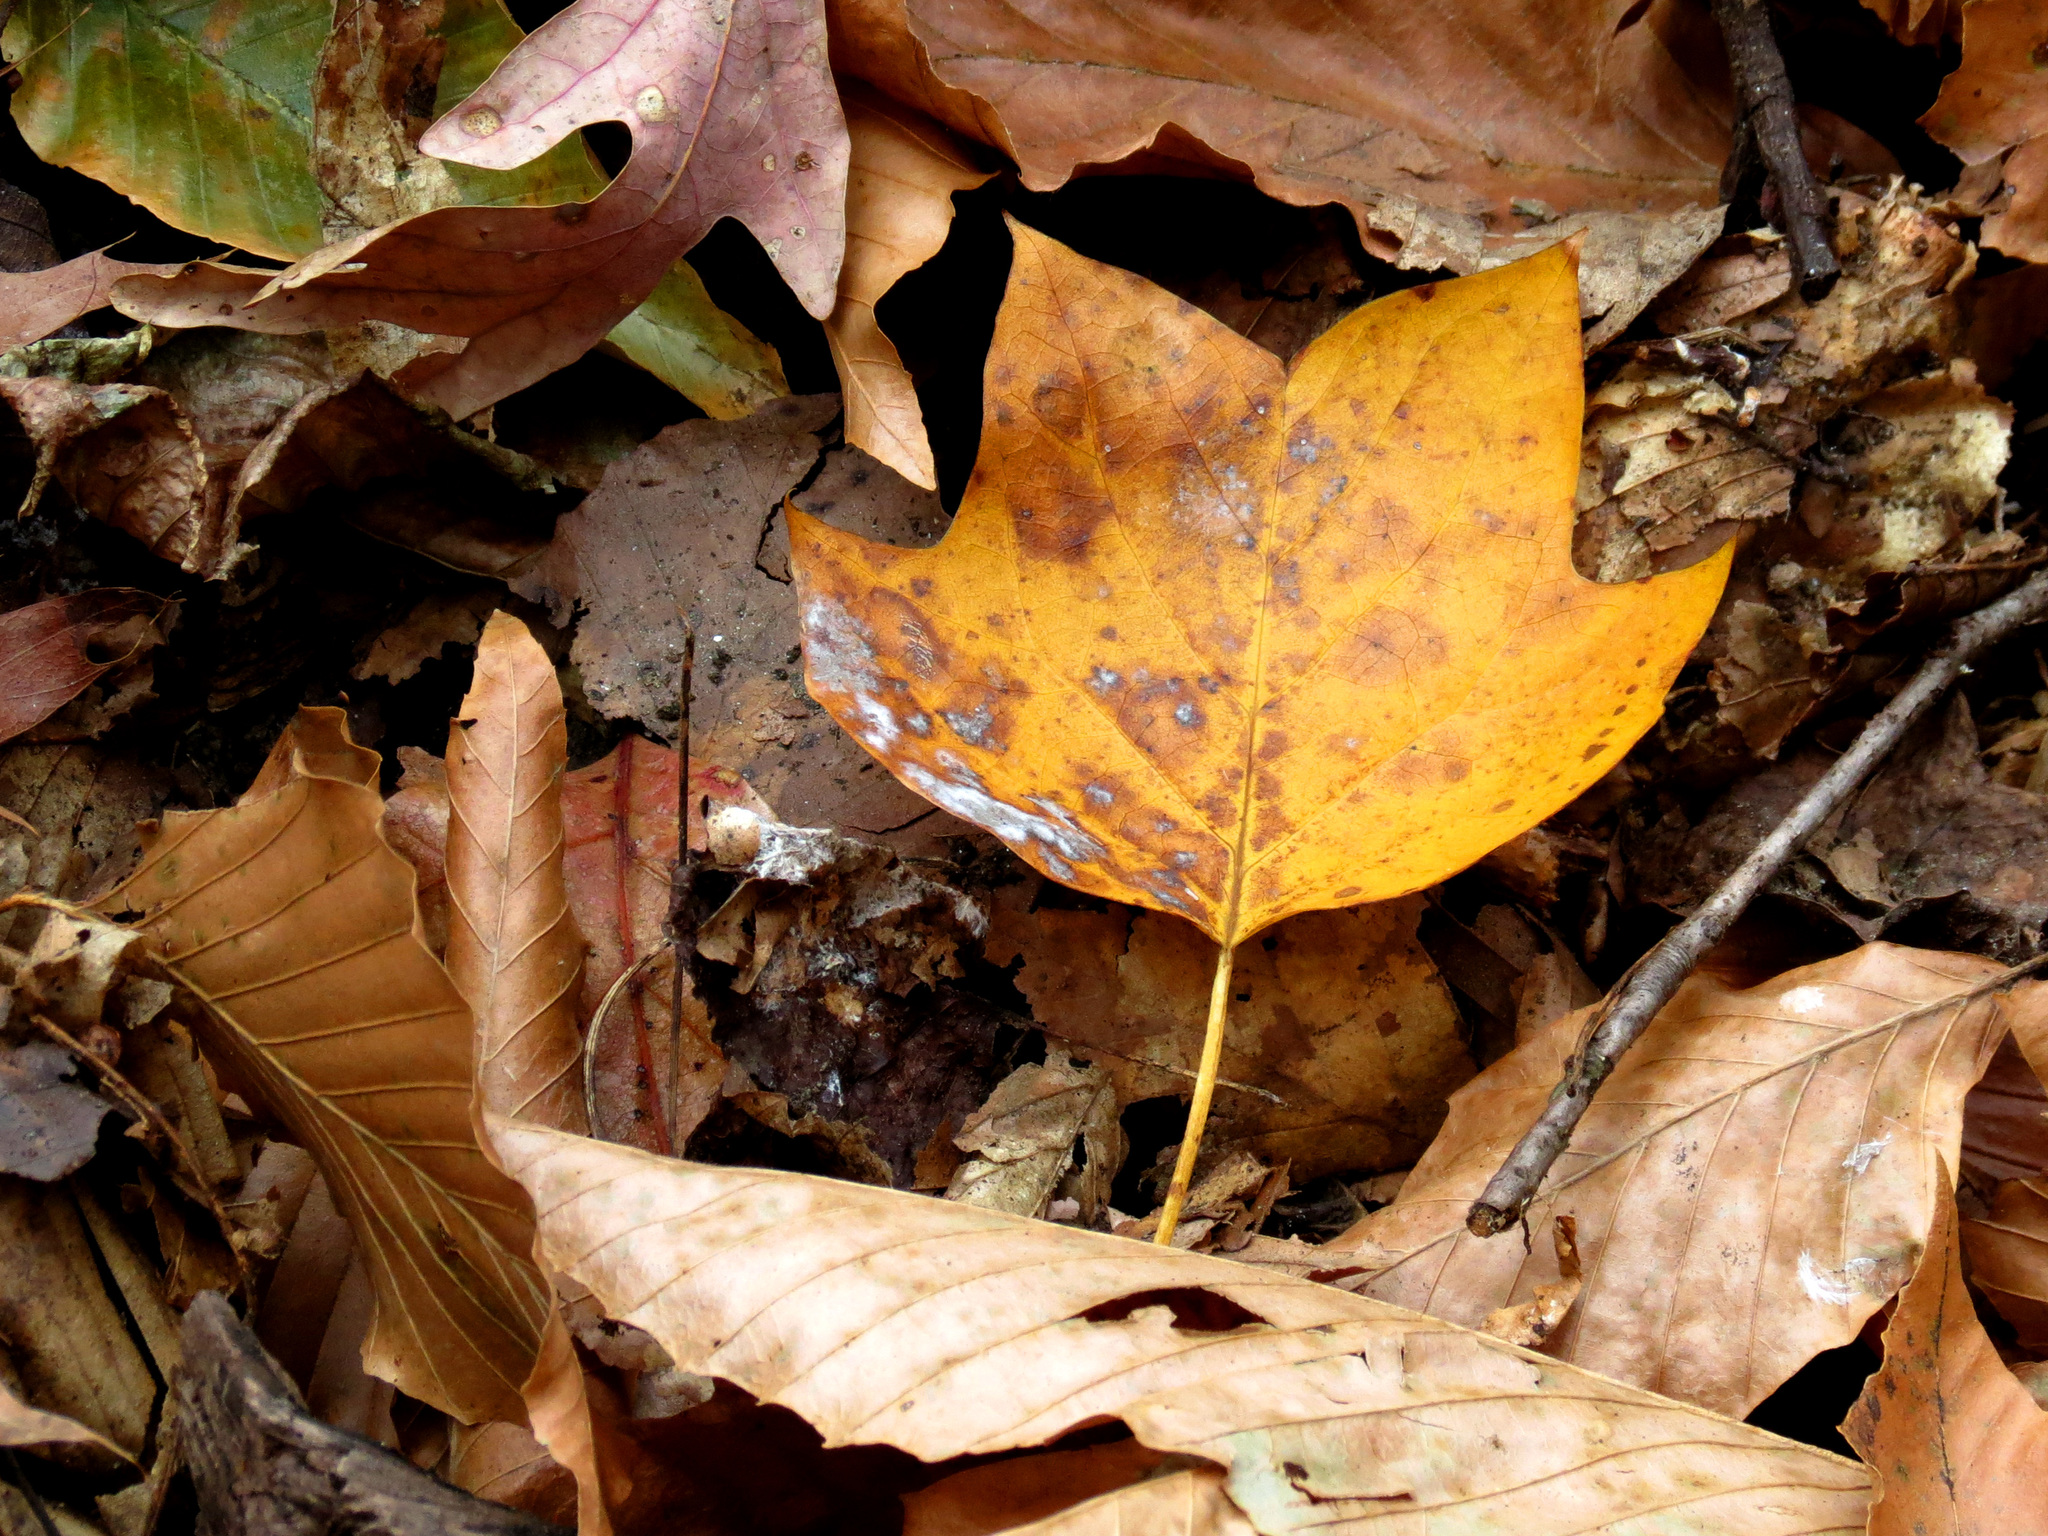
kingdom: Plantae
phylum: Tracheophyta
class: Magnoliopsida
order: Magnoliales
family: Magnoliaceae
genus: Liriodendron
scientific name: Liriodendron tulipifera
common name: Tulip tree
